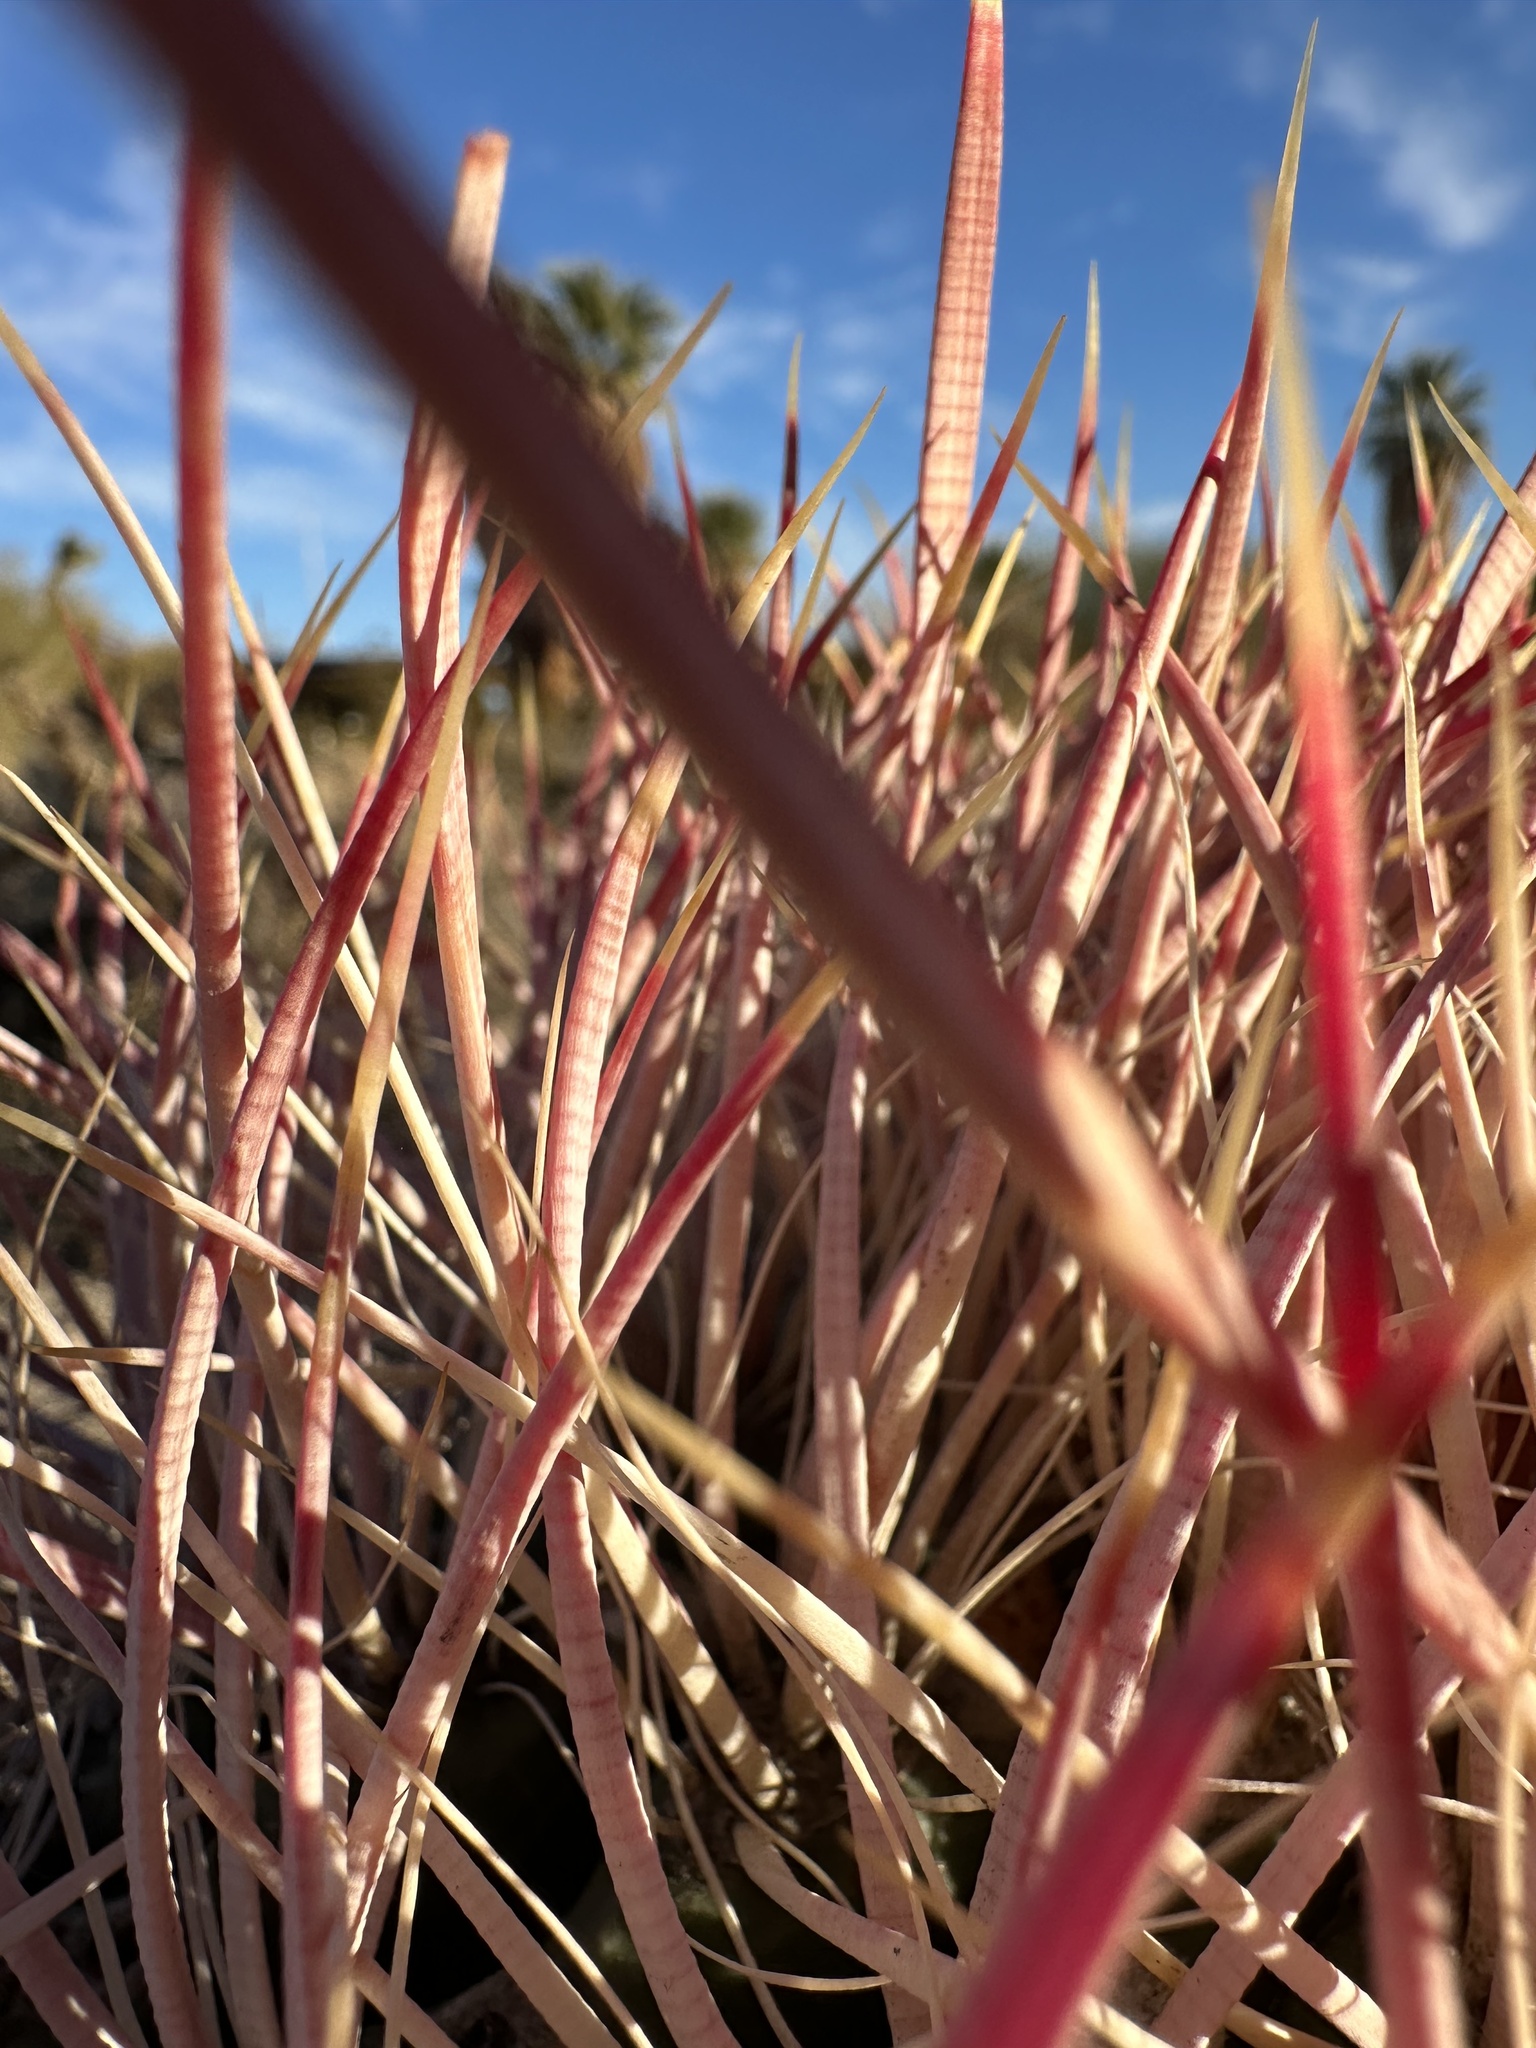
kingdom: Plantae
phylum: Tracheophyta
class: Magnoliopsida
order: Caryophyllales
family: Cactaceae
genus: Ferocactus
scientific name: Ferocactus cylindraceus
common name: California barrel cactus
